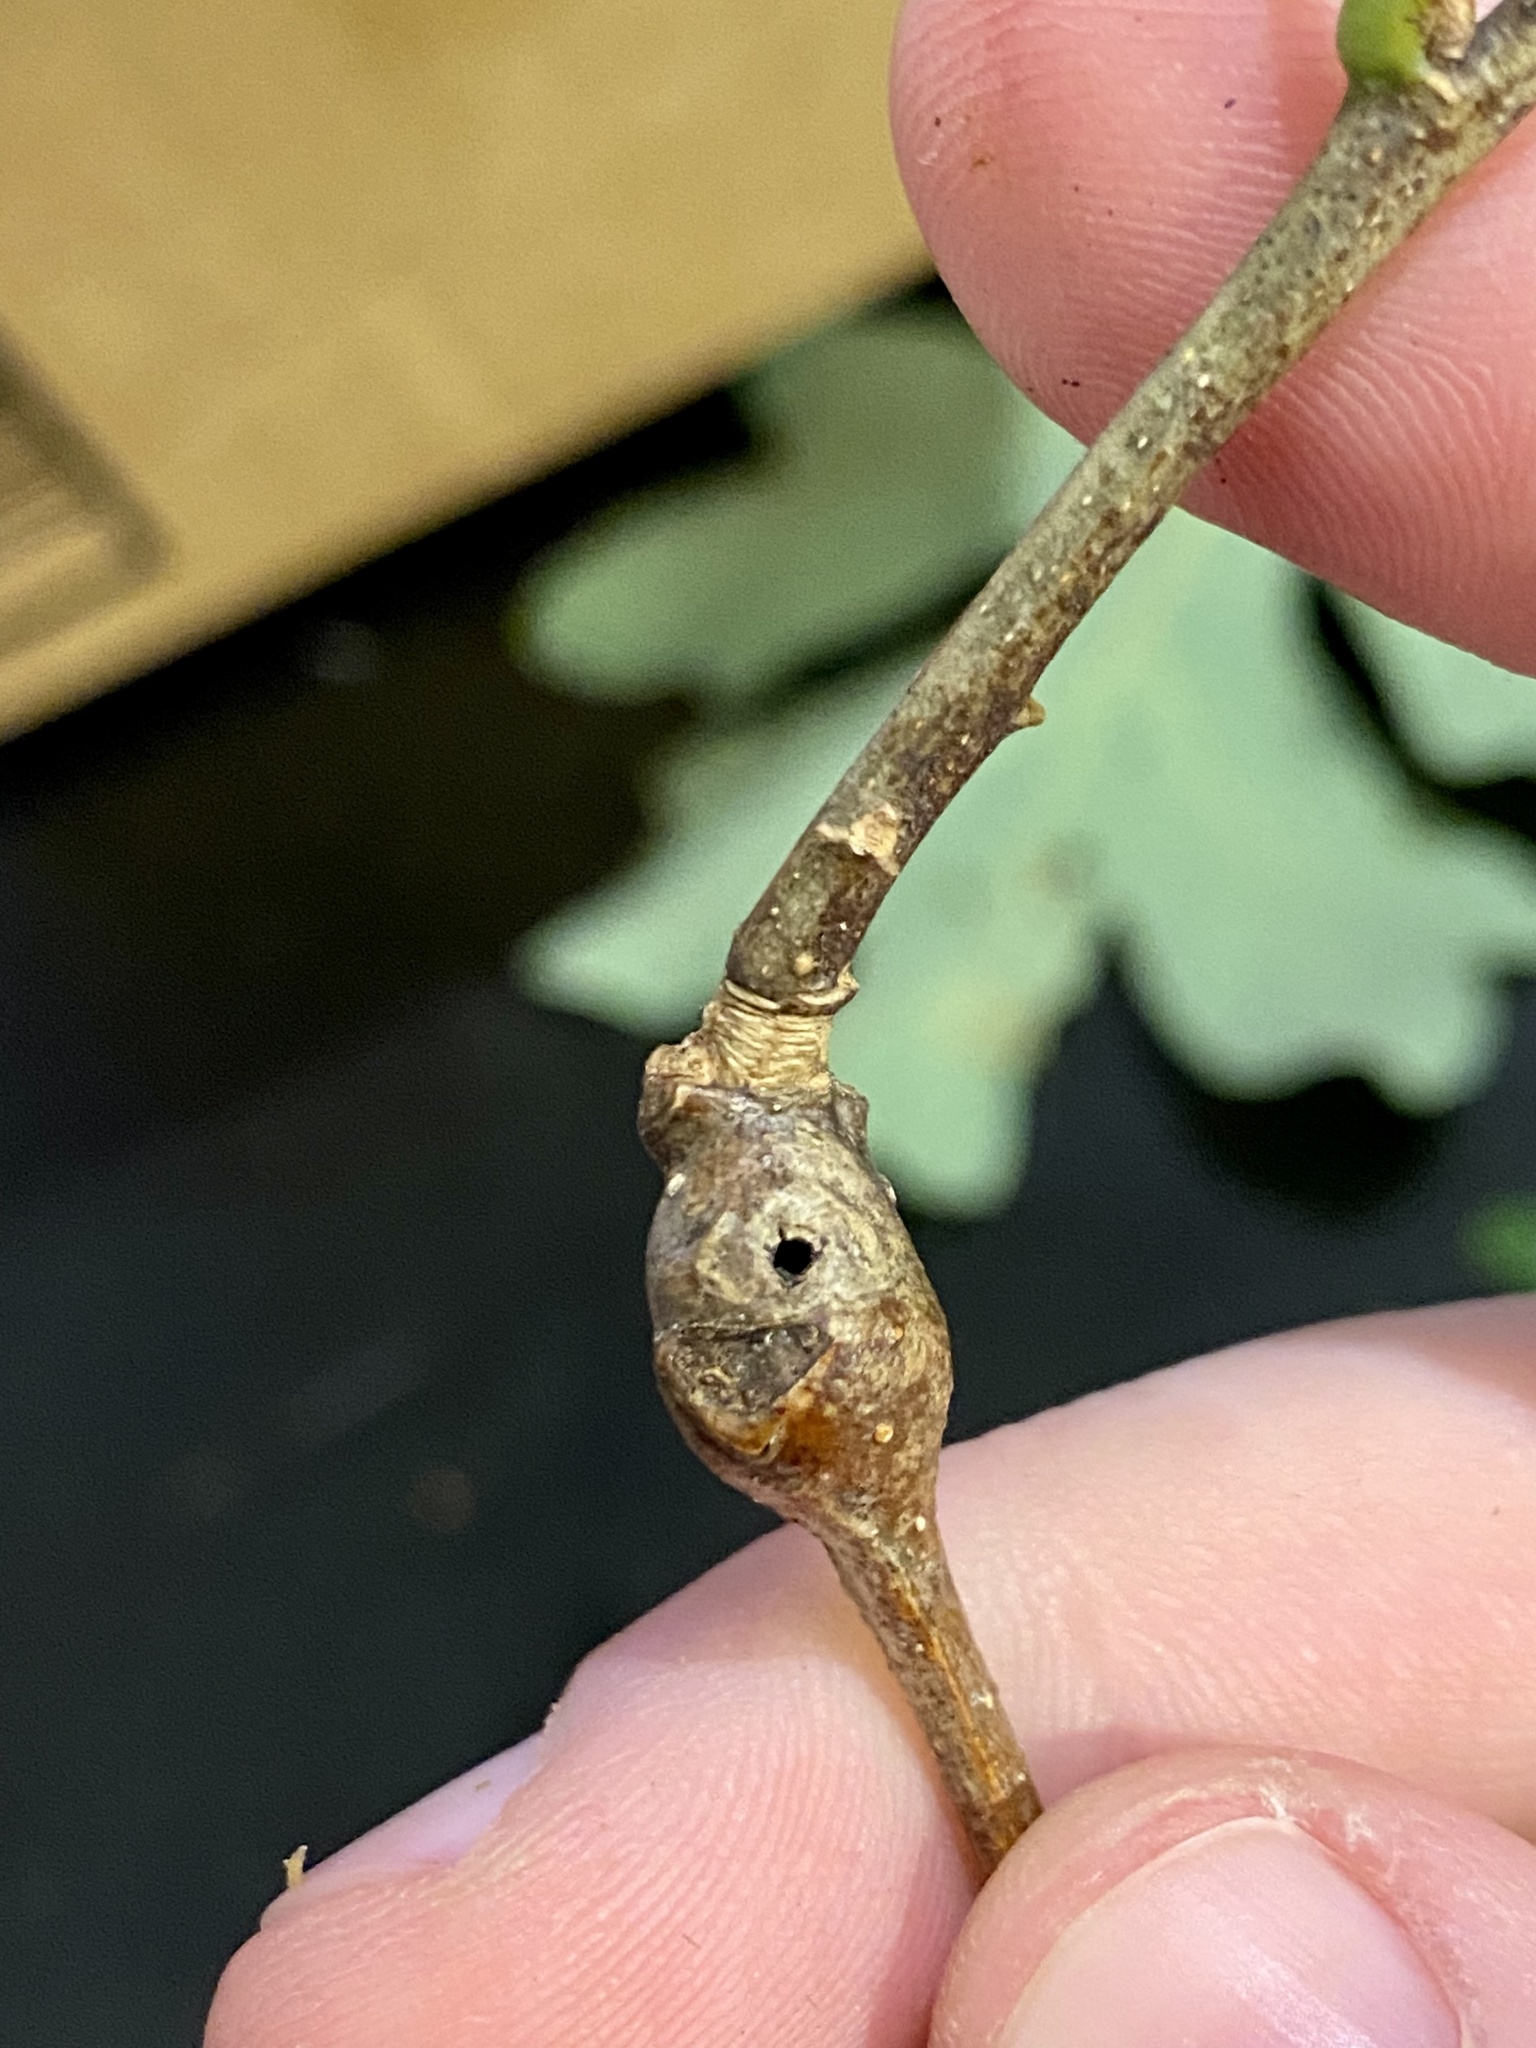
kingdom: Animalia
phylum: Arthropoda
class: Insecta
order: Hymenoptera
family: Cynipidae
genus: Callirhytis
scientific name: Callirhytis clavula
